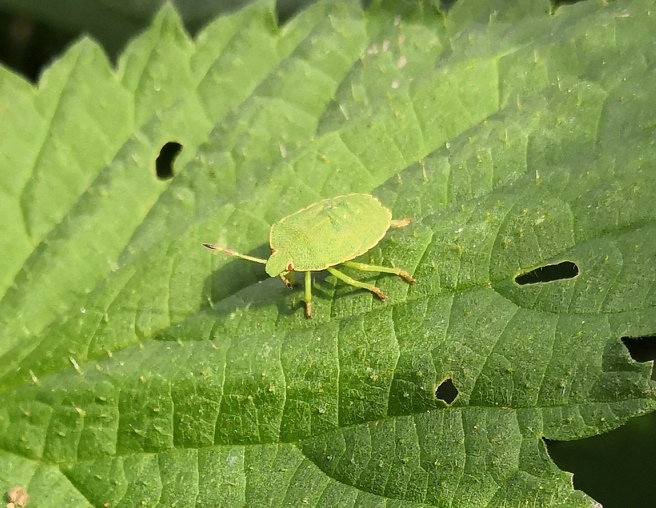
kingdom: Animalia
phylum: Arthropoda
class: Insecta
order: Hemiptera
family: Pentatomidae
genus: Palomena
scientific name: Palomena prasina
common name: Green shieldbug
